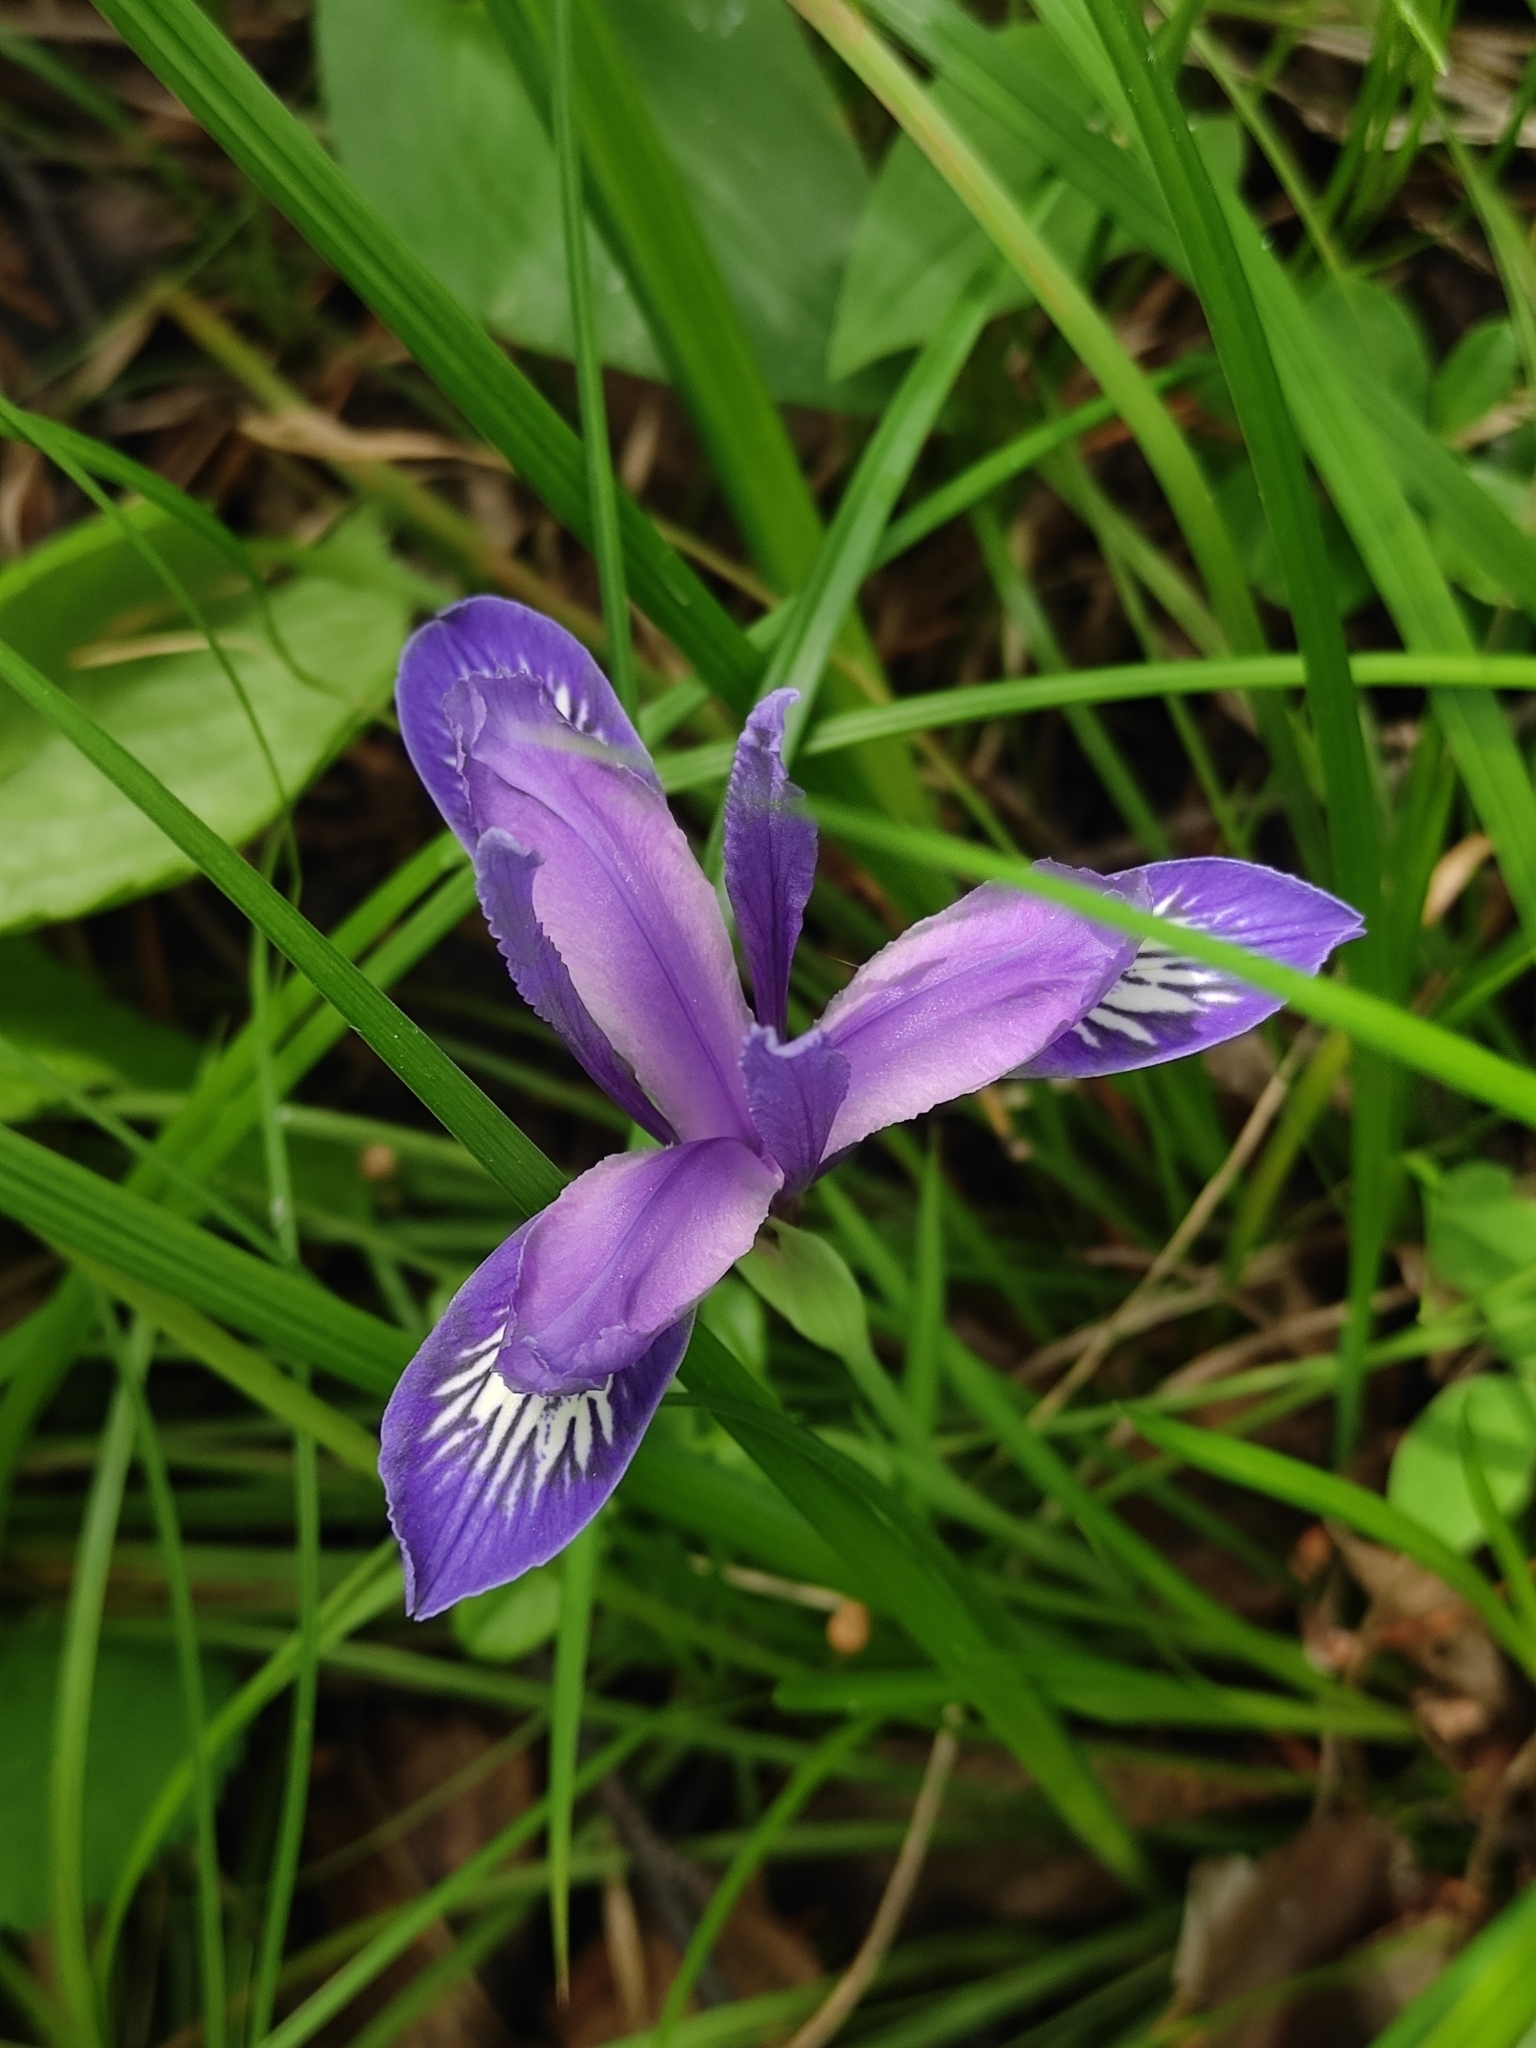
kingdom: Plantae
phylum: Tracheophyta
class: Liliopsida
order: Asparagales
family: Iridaceae
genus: Iris
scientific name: Iris ruthenica
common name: Purple-bract iris
